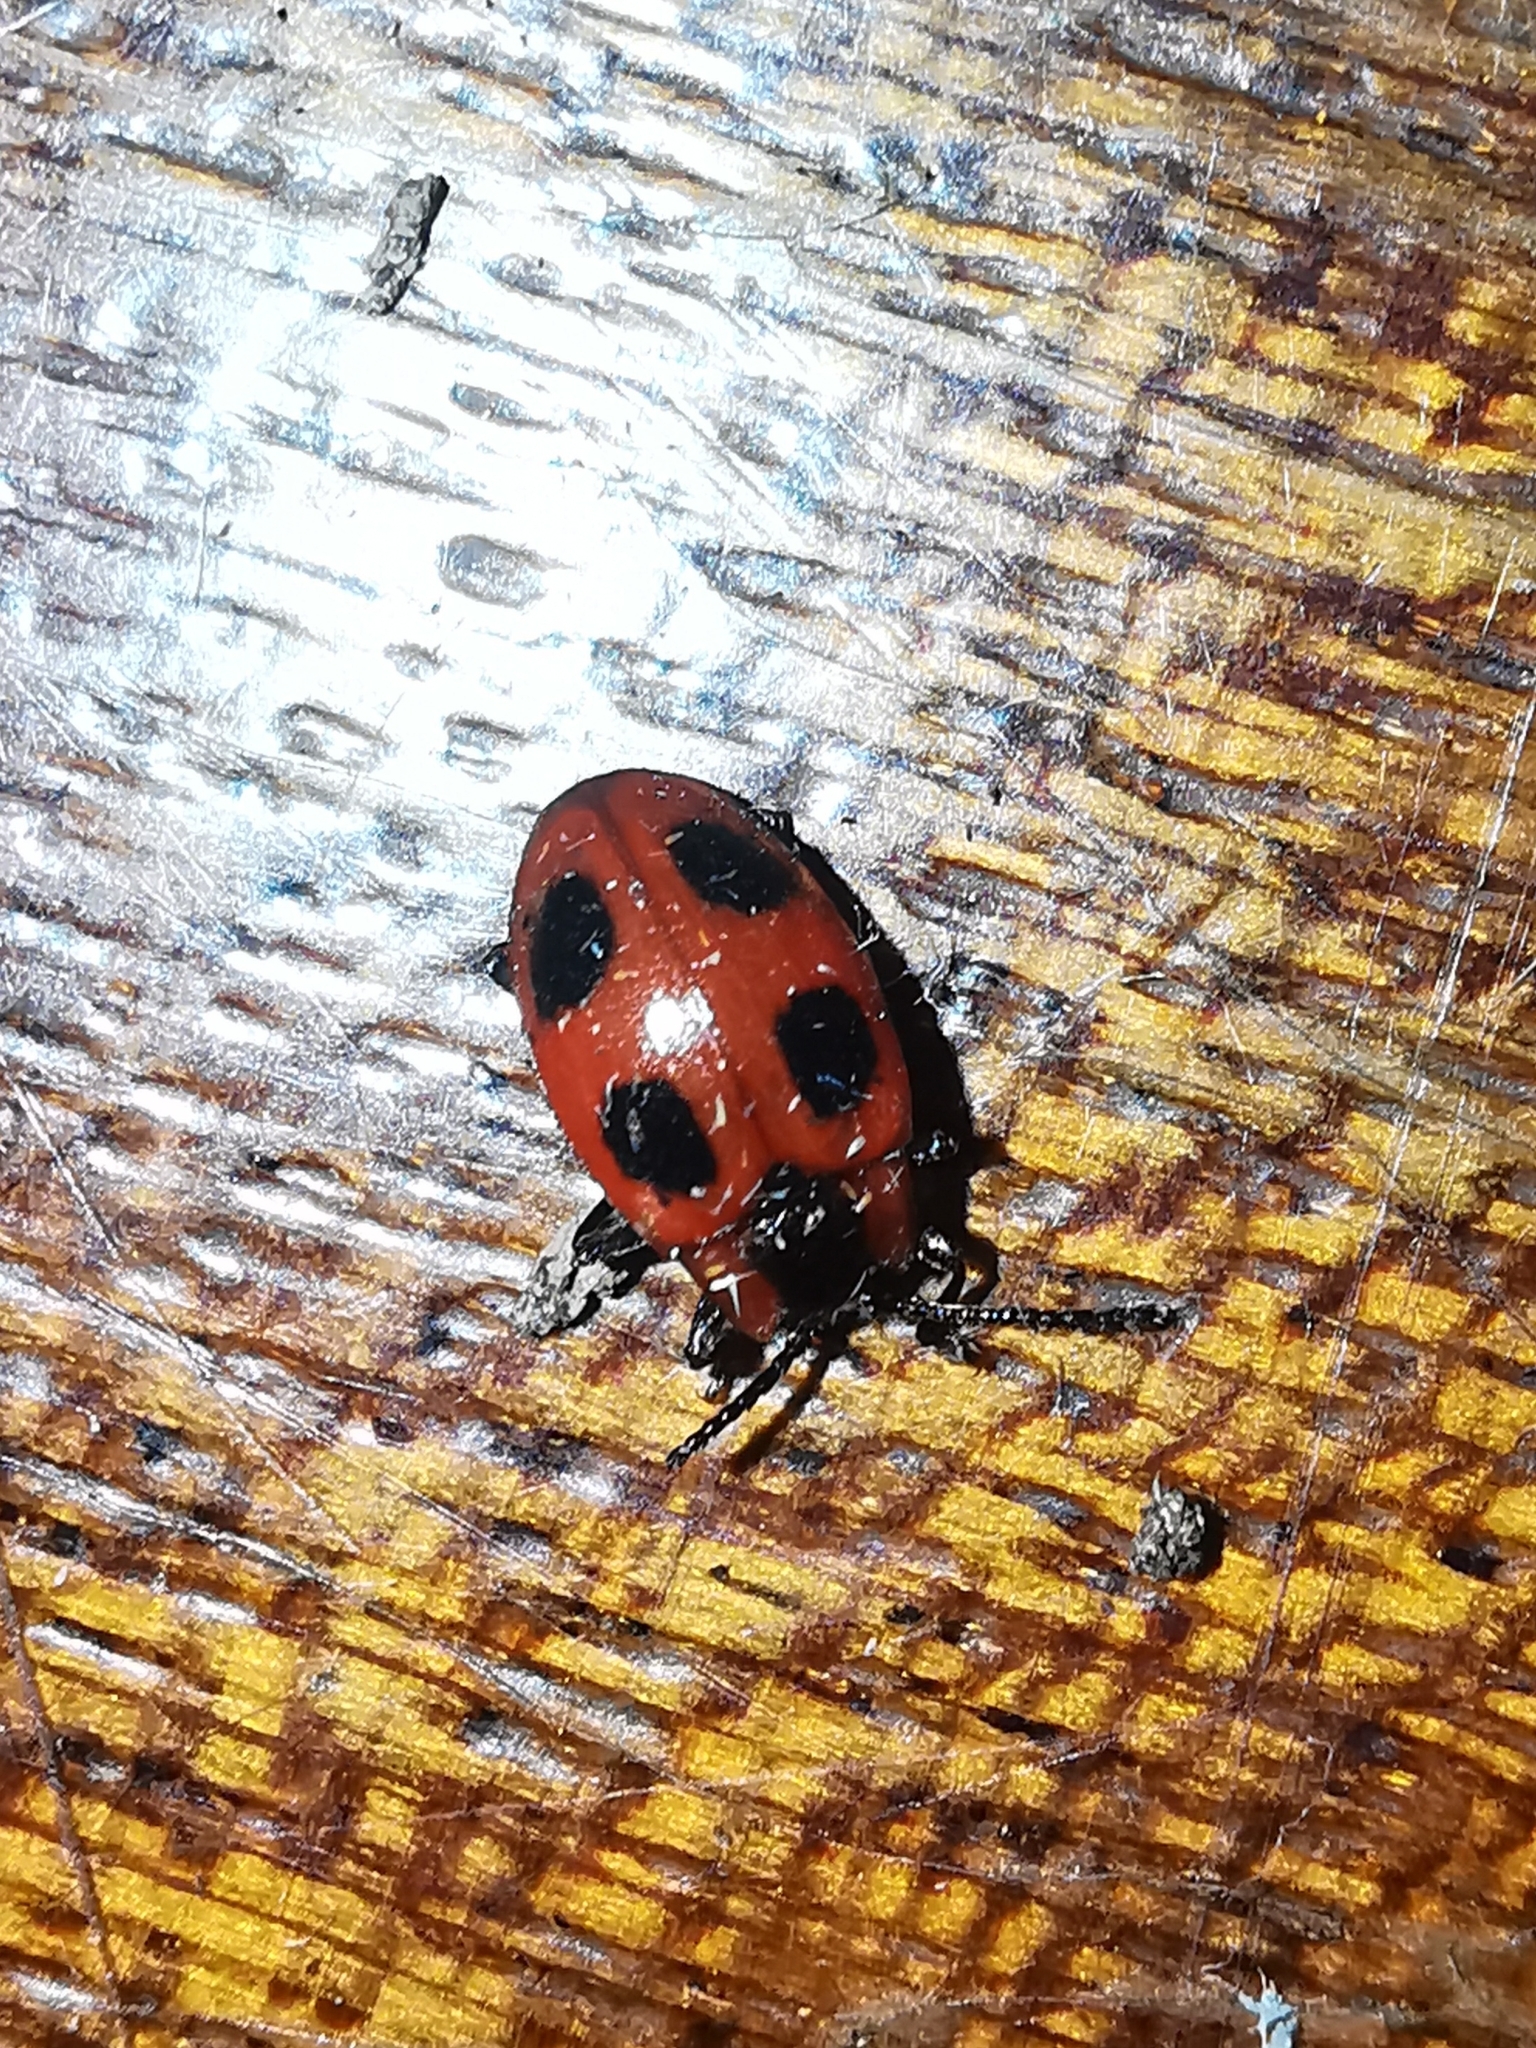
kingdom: Animalia
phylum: Arthropoda
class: Insecta
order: Coleoptera
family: Endomychidae
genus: Endomychus
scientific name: Endomychus coccineus
